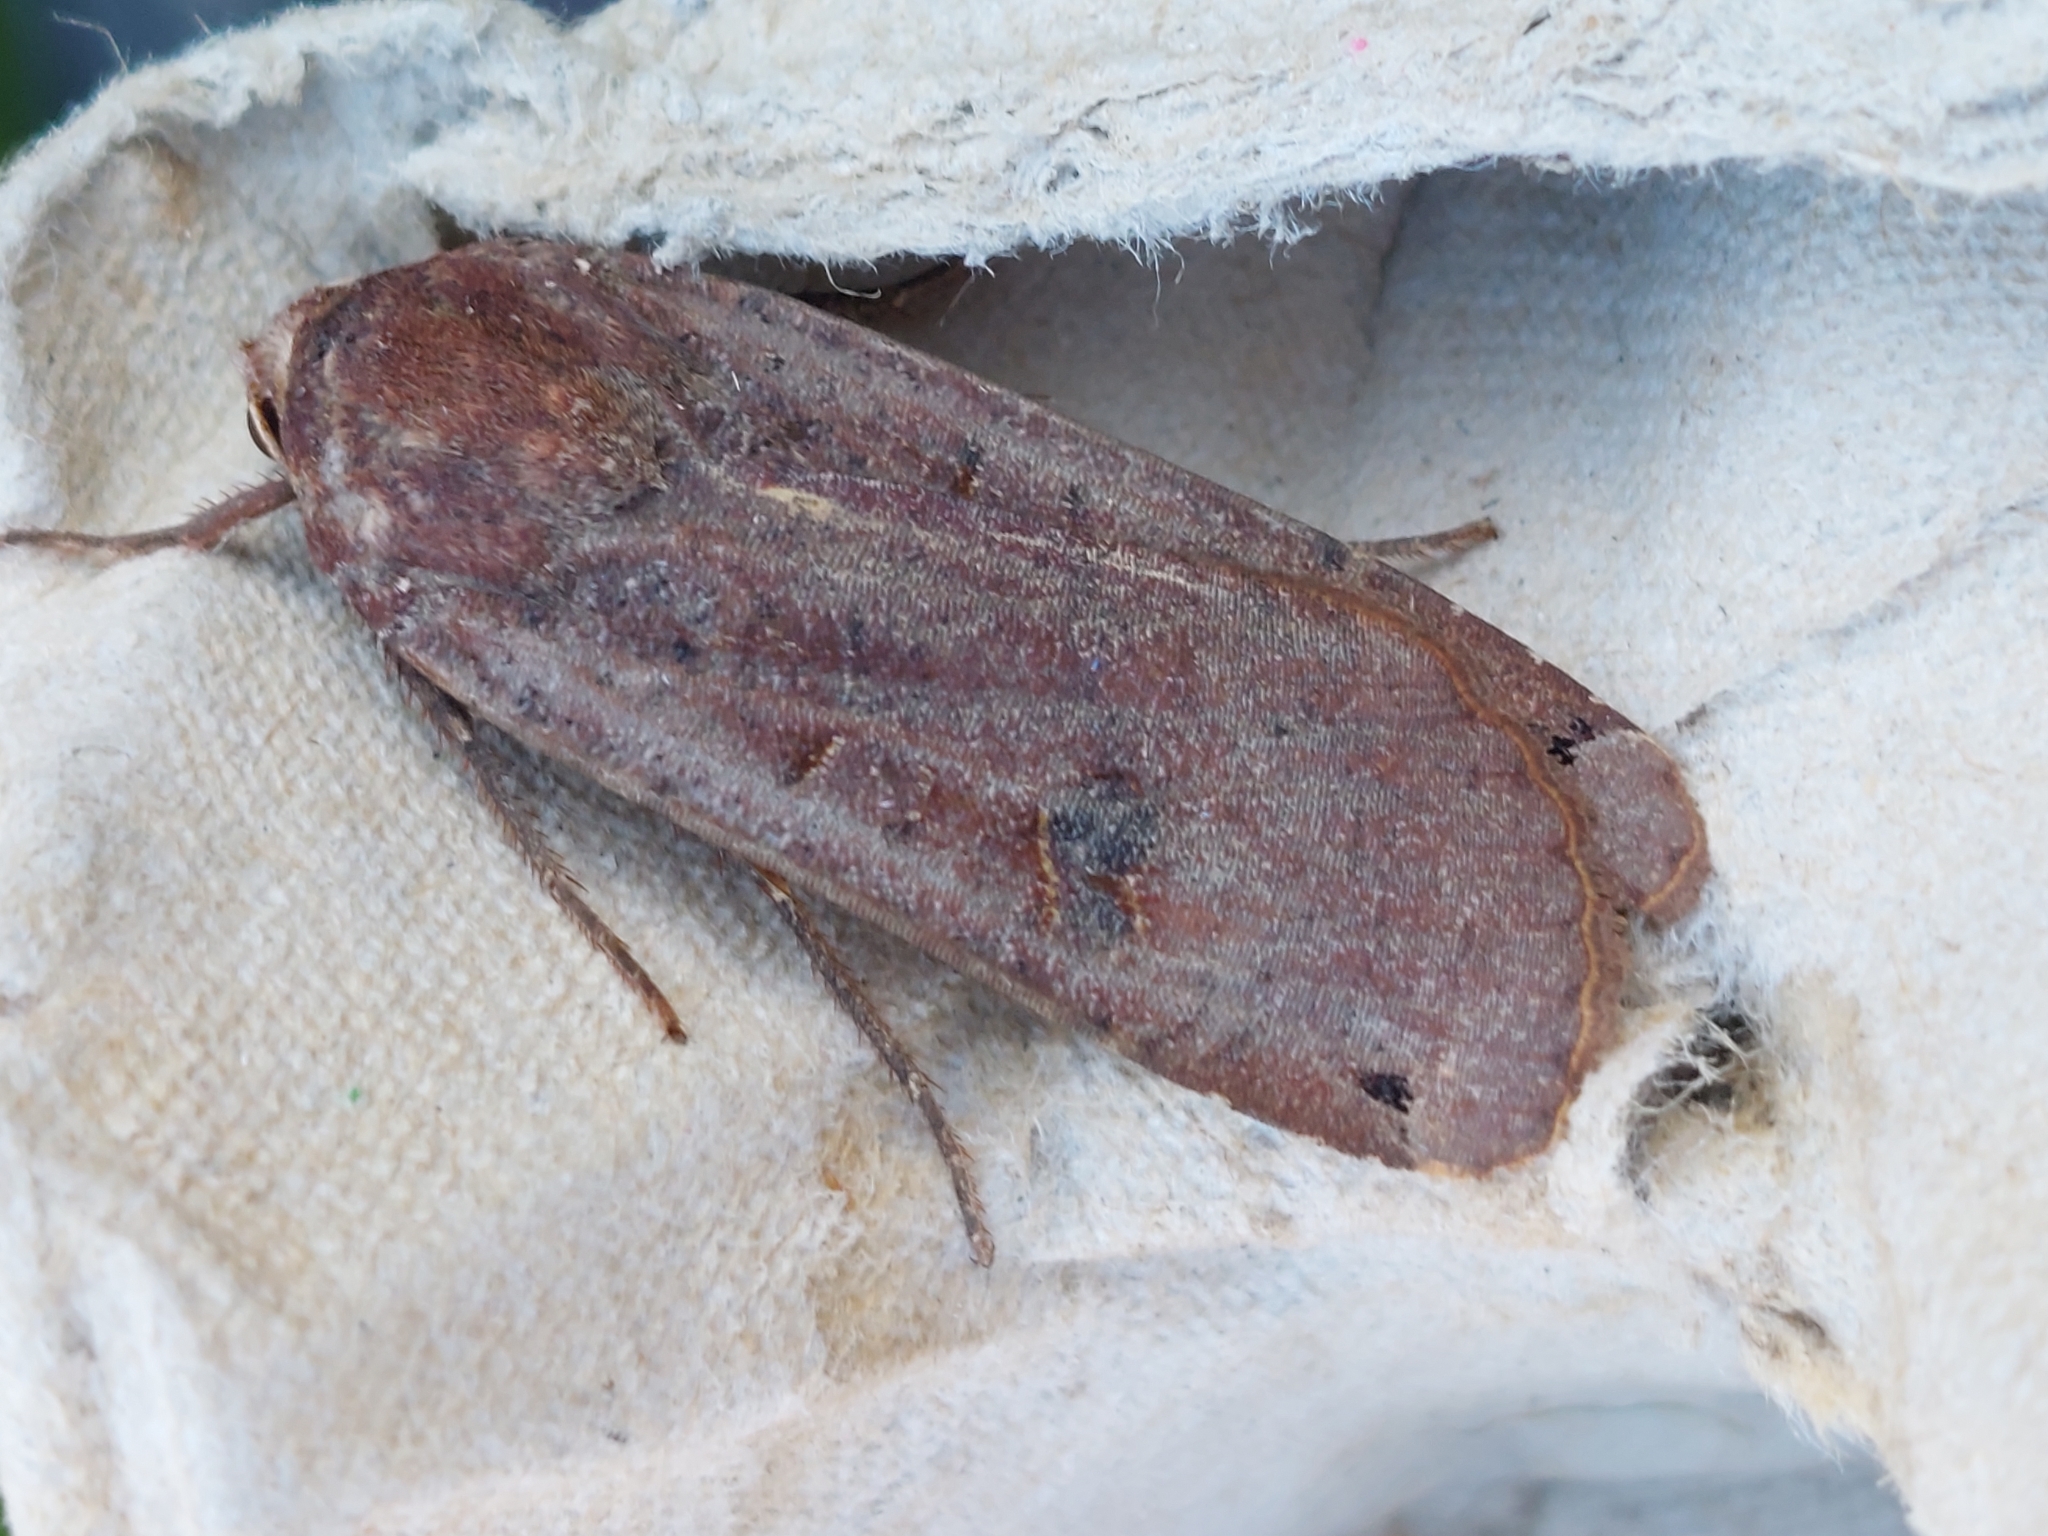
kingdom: Animalia
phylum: Arthropoda
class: Insecta
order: Lepidoptera
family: Noctuidae
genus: Noctua
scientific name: Noctua pronuba
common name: Large yellow underwing
